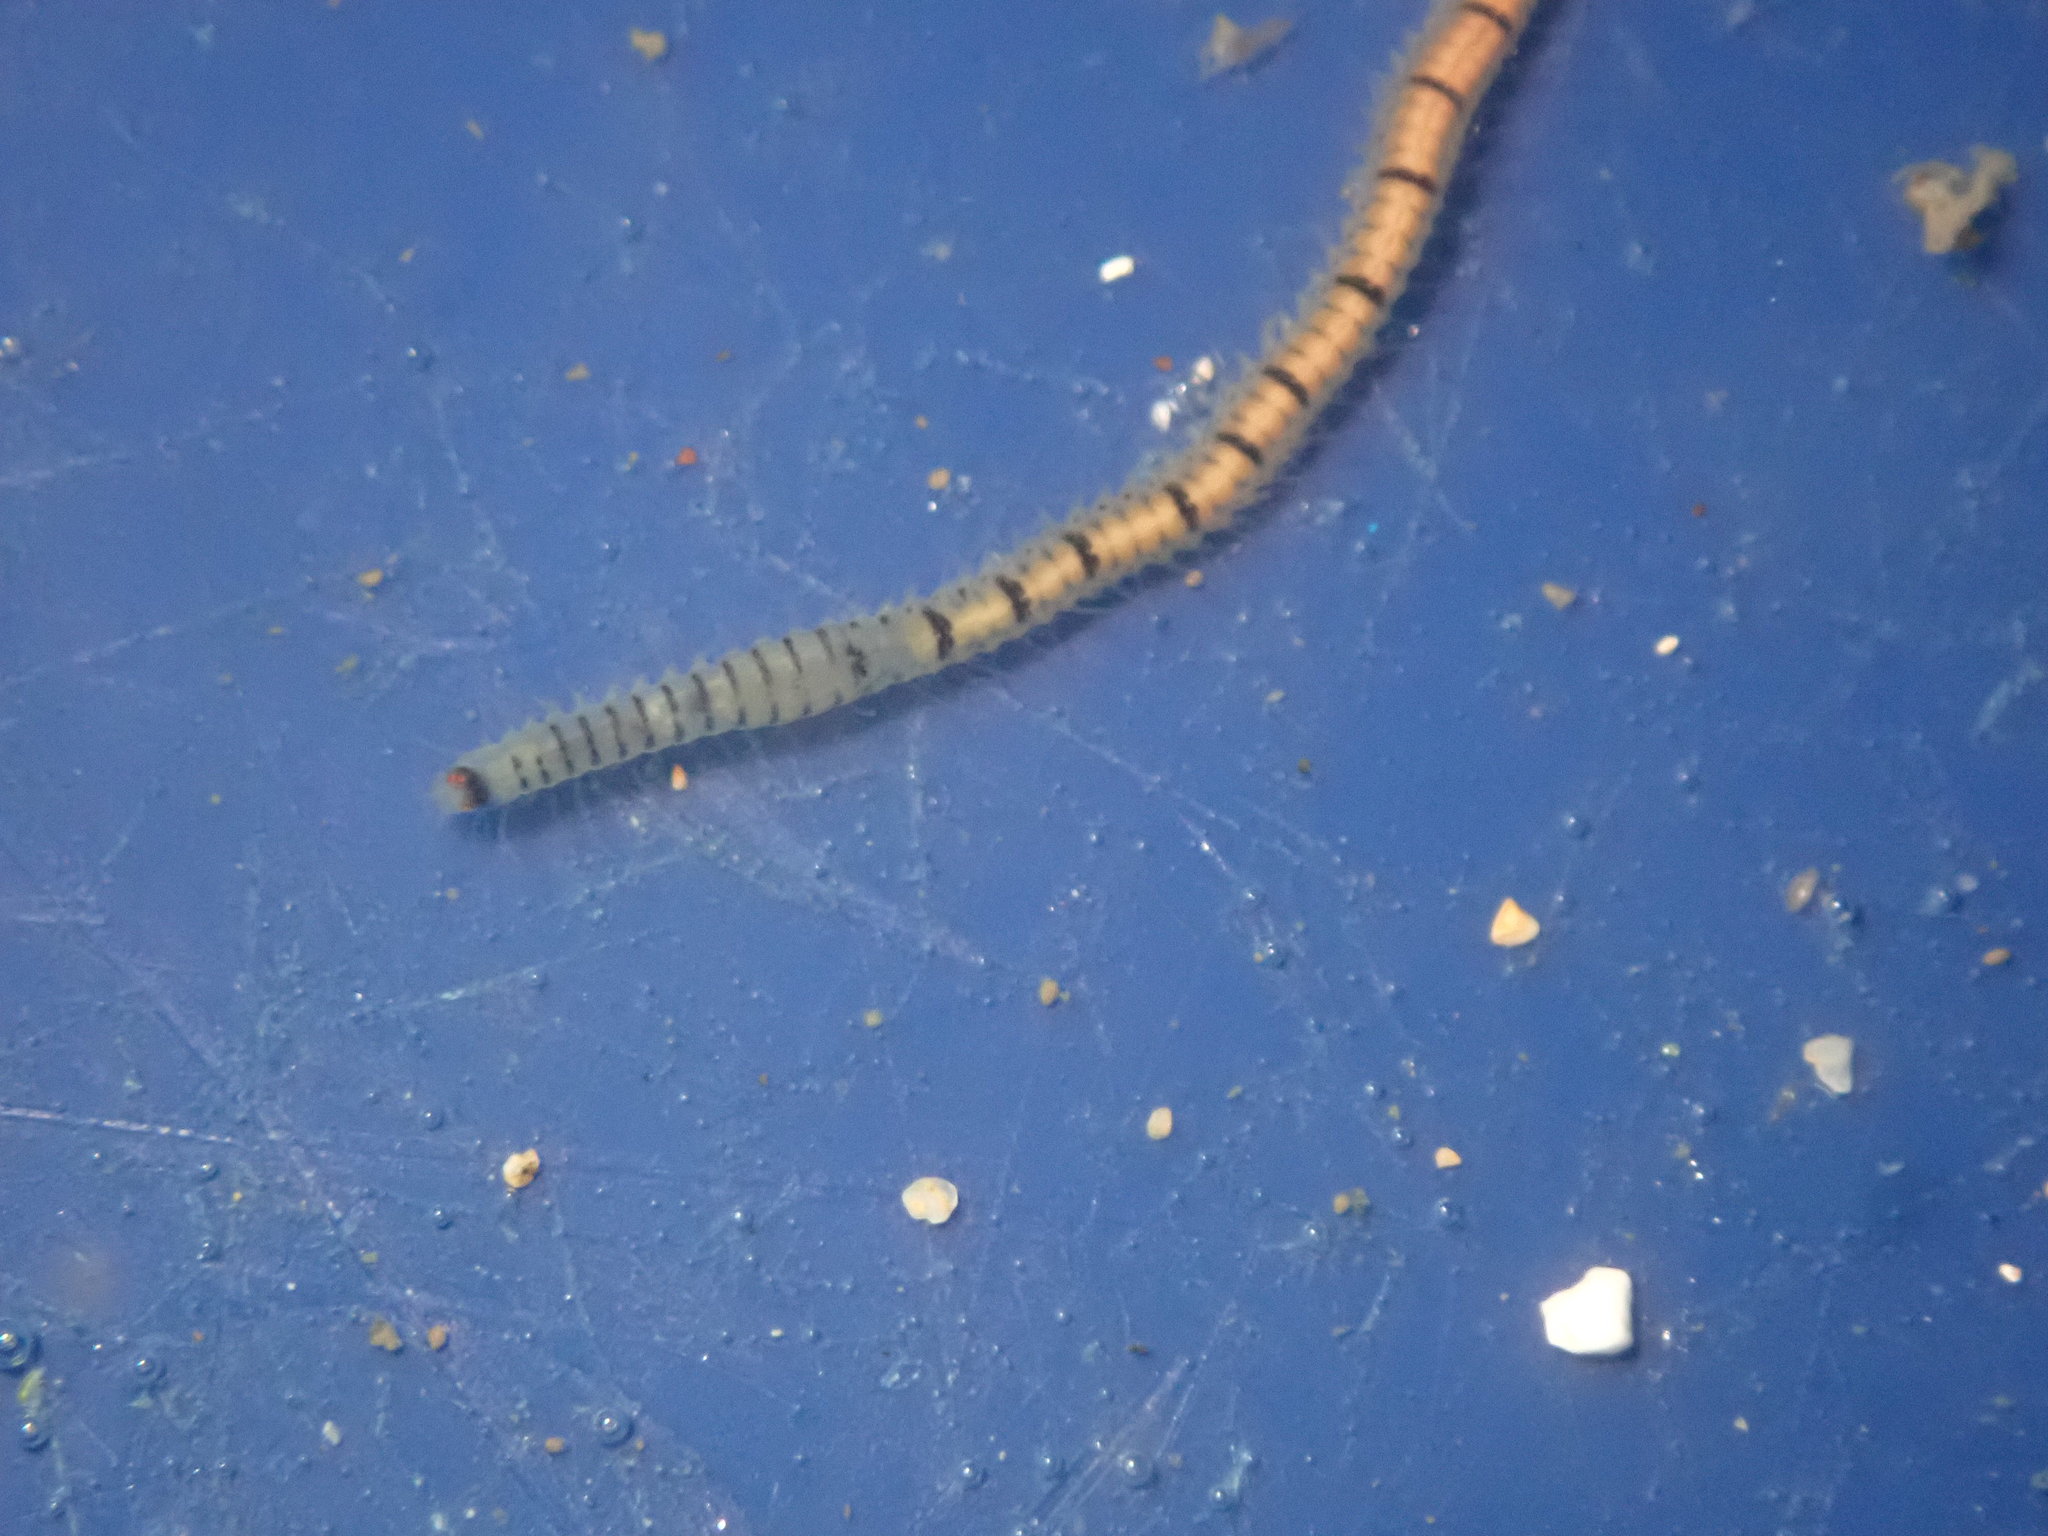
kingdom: Animalia
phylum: Annelida
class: Polychaeta
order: Phyllodocida
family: Syllidae
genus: Odontosyllis
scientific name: Odontosyllis phosphorea
